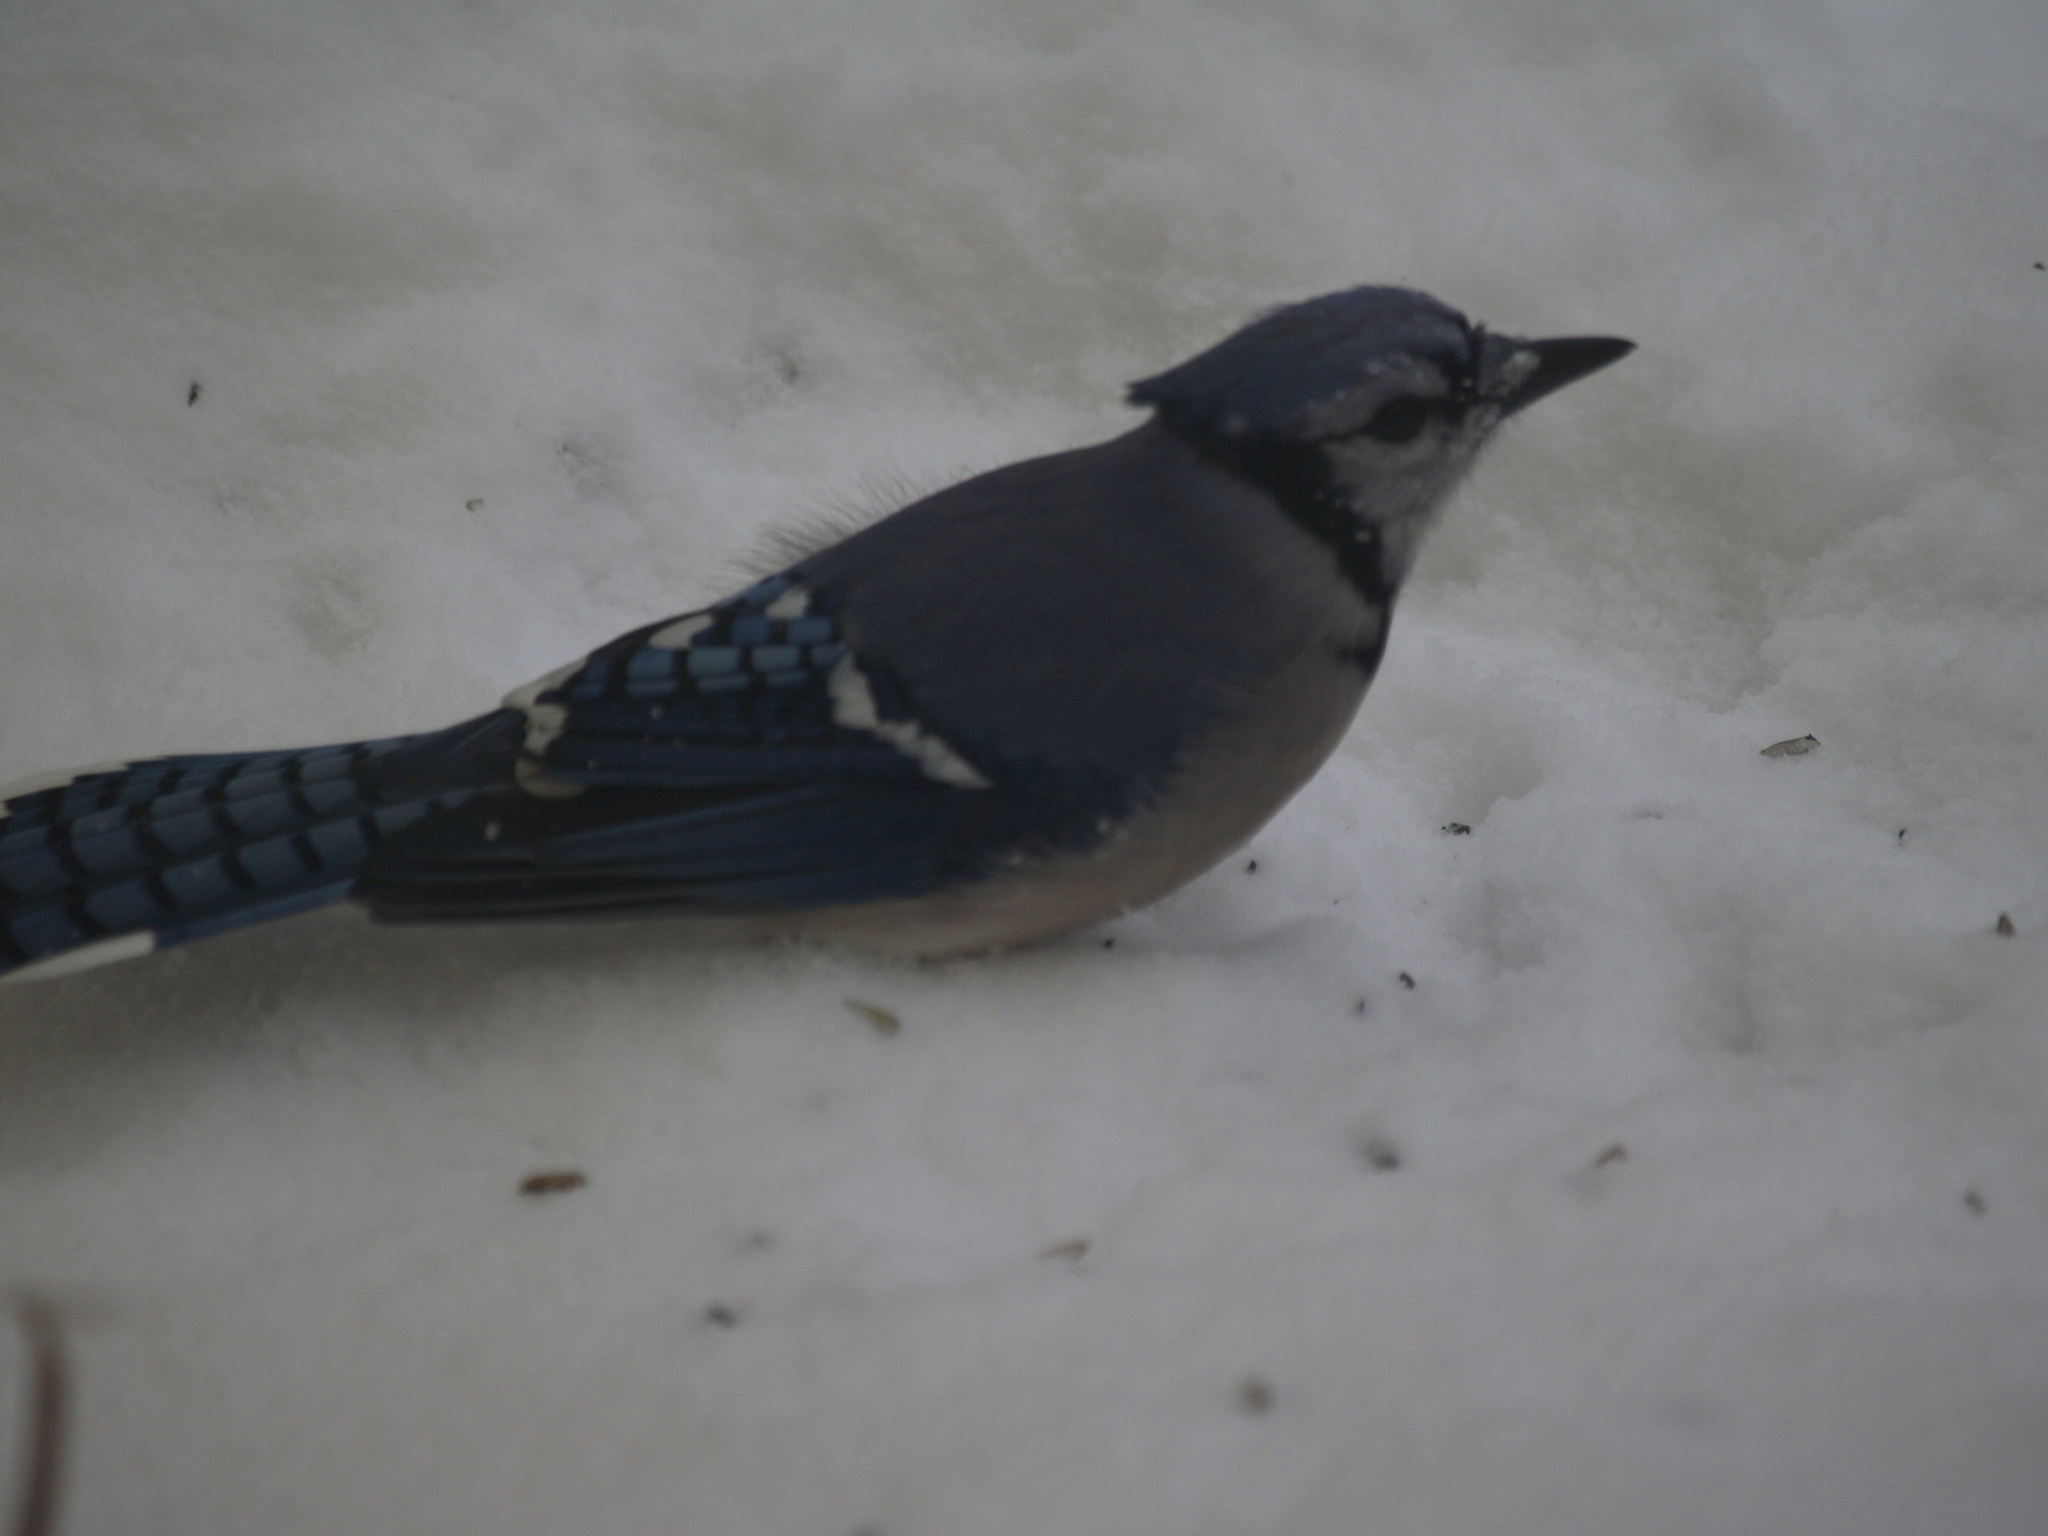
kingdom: Animalia
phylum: Chordata
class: Aves
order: Passeriformes
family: Corvidae
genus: Cyanocitta
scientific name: Cyanocitta cristata
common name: Blue jay
